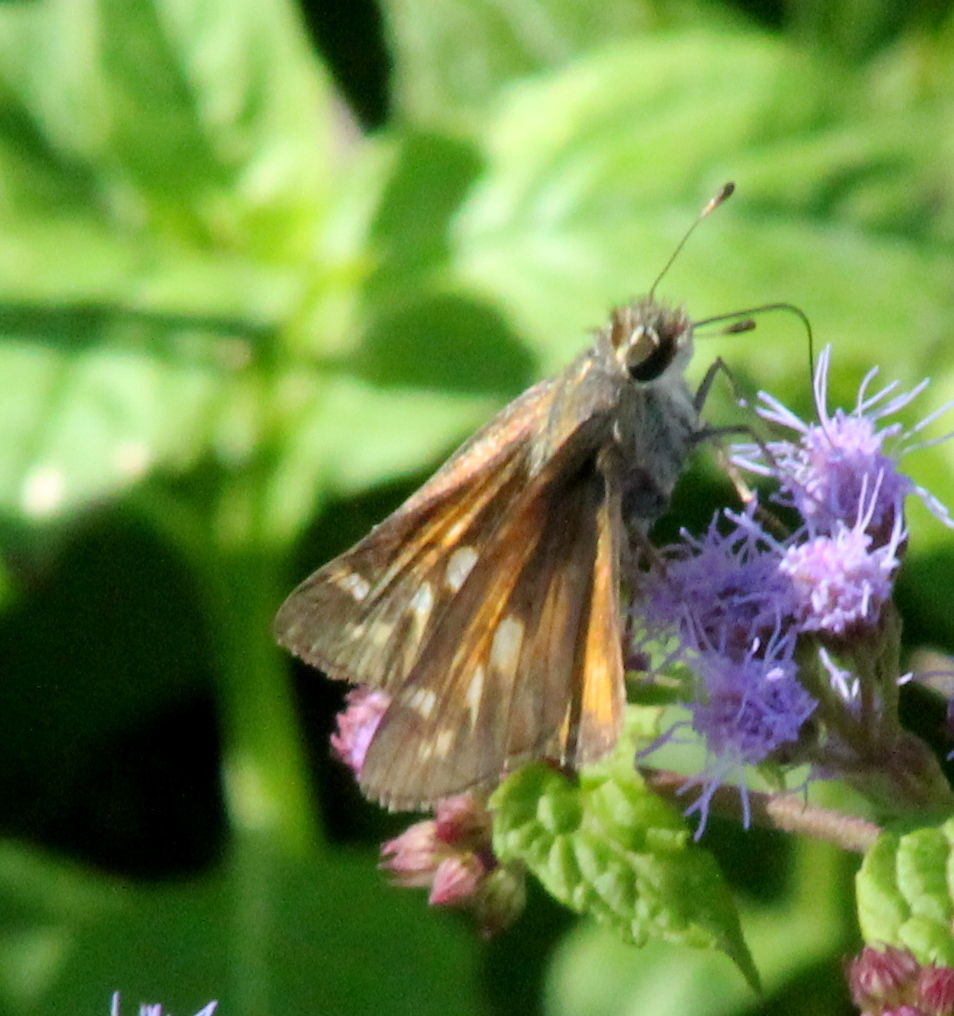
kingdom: Animalia
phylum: Arthropoda
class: Insecta
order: Lepidoptera
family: Hesperiidae
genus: Atalopedes
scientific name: Atalopedes
